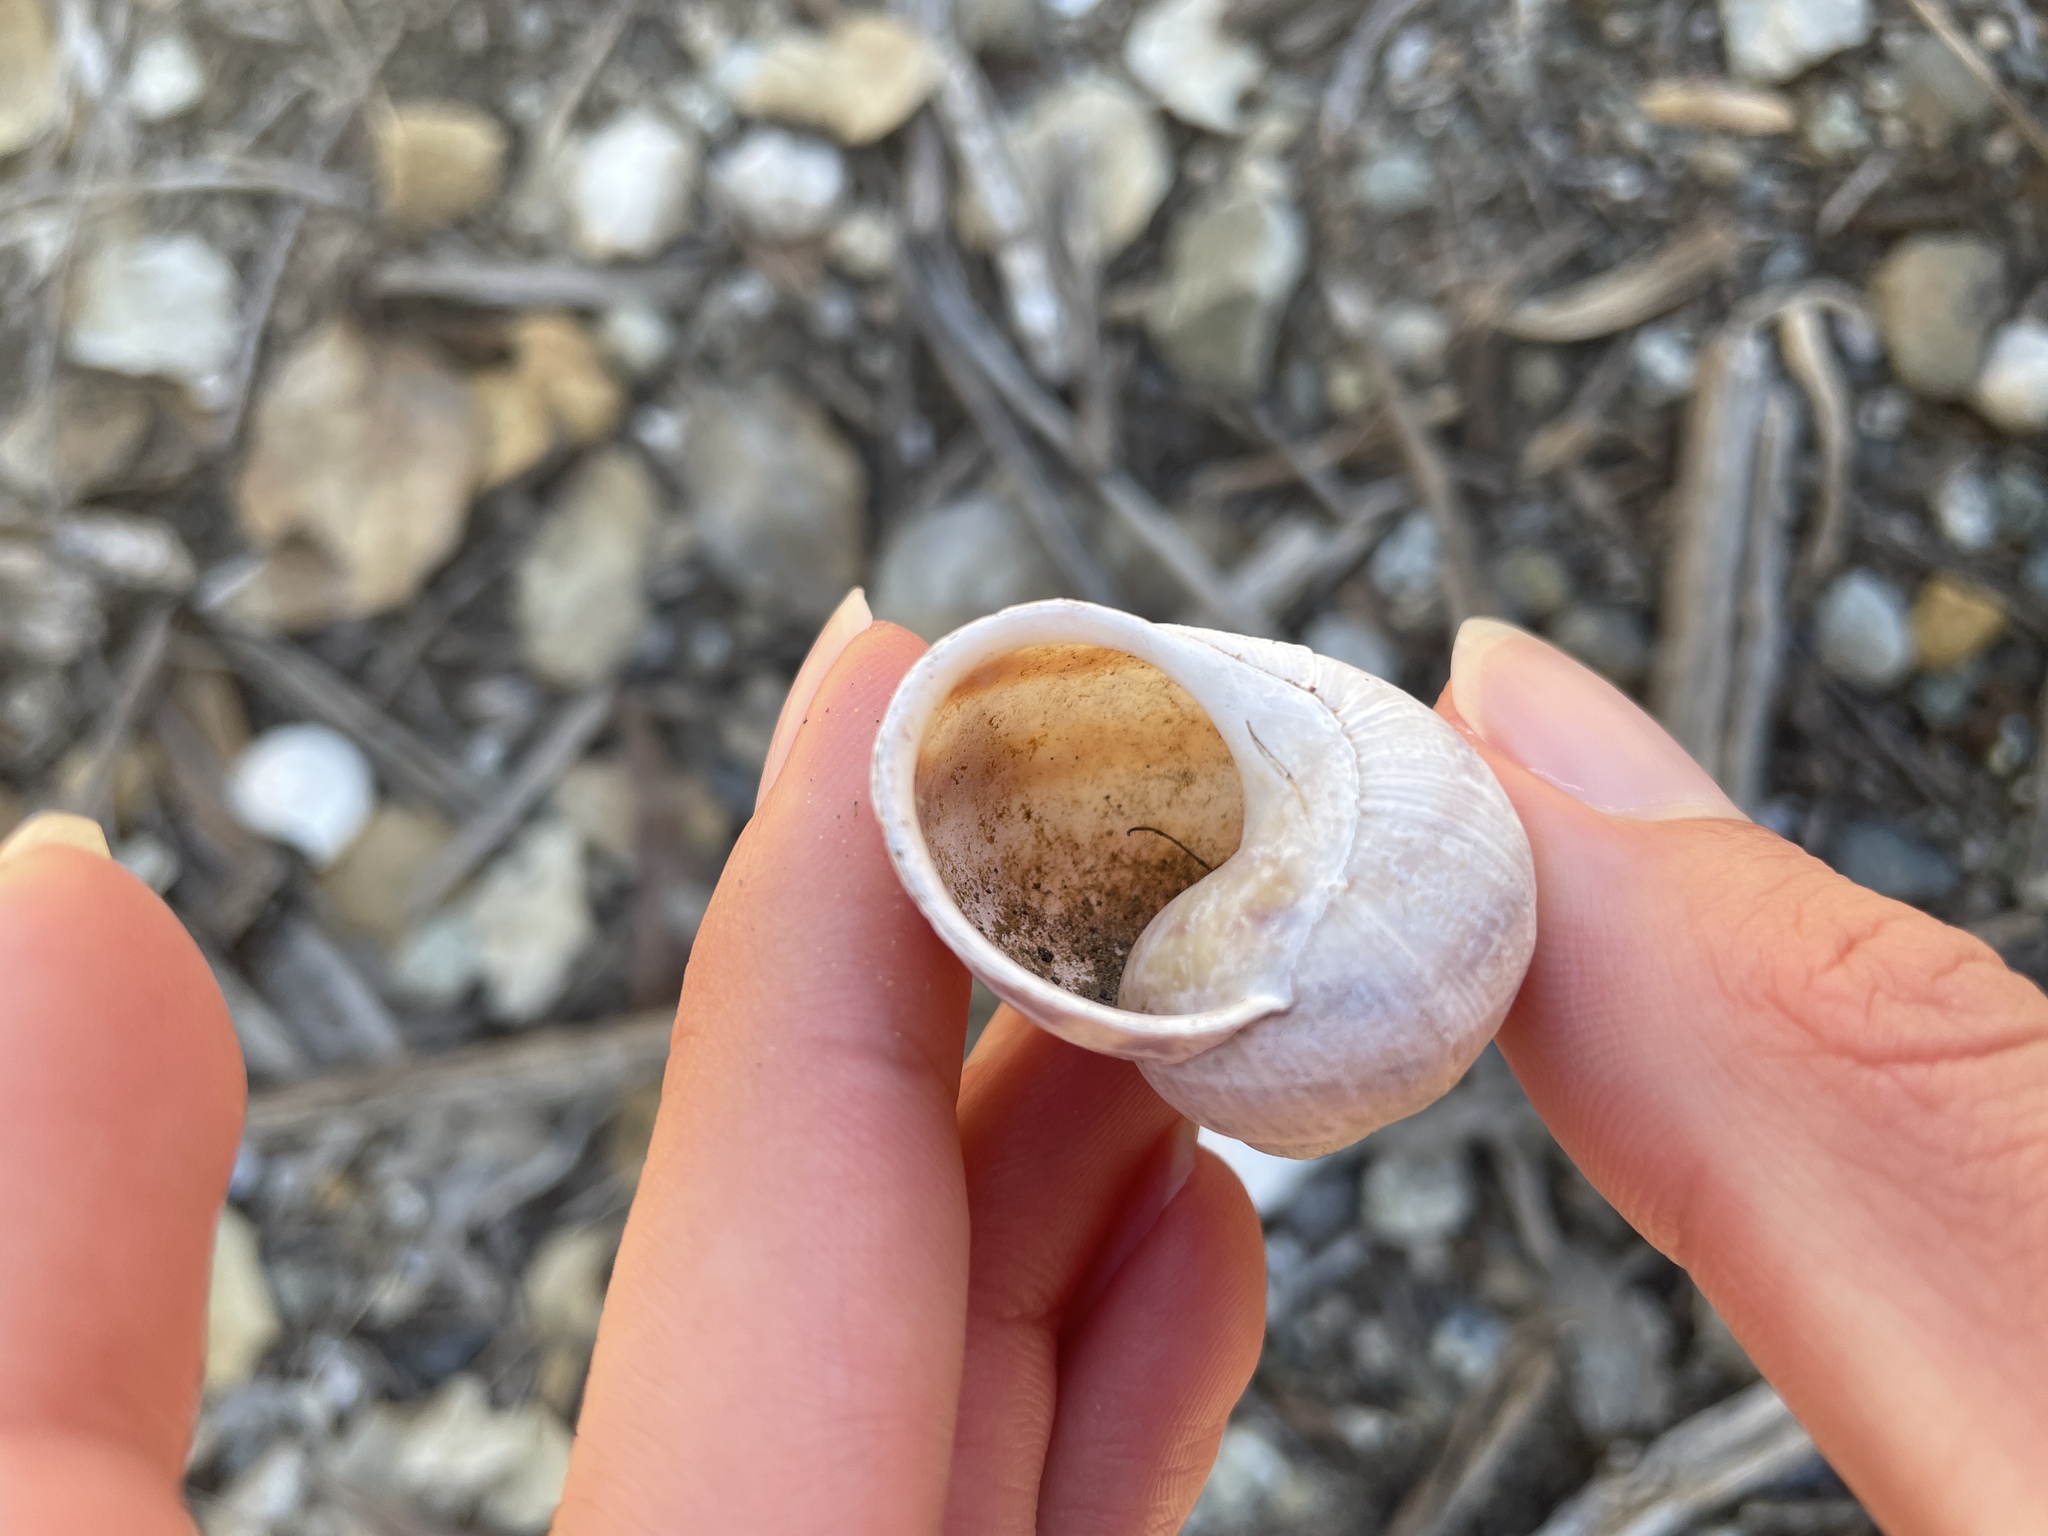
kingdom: Animalia
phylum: Mollusca
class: Gastropoda
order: Stylommatophora
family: Helicidae
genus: Cornu
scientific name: Cornu aspersum
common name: Brown garden snail
